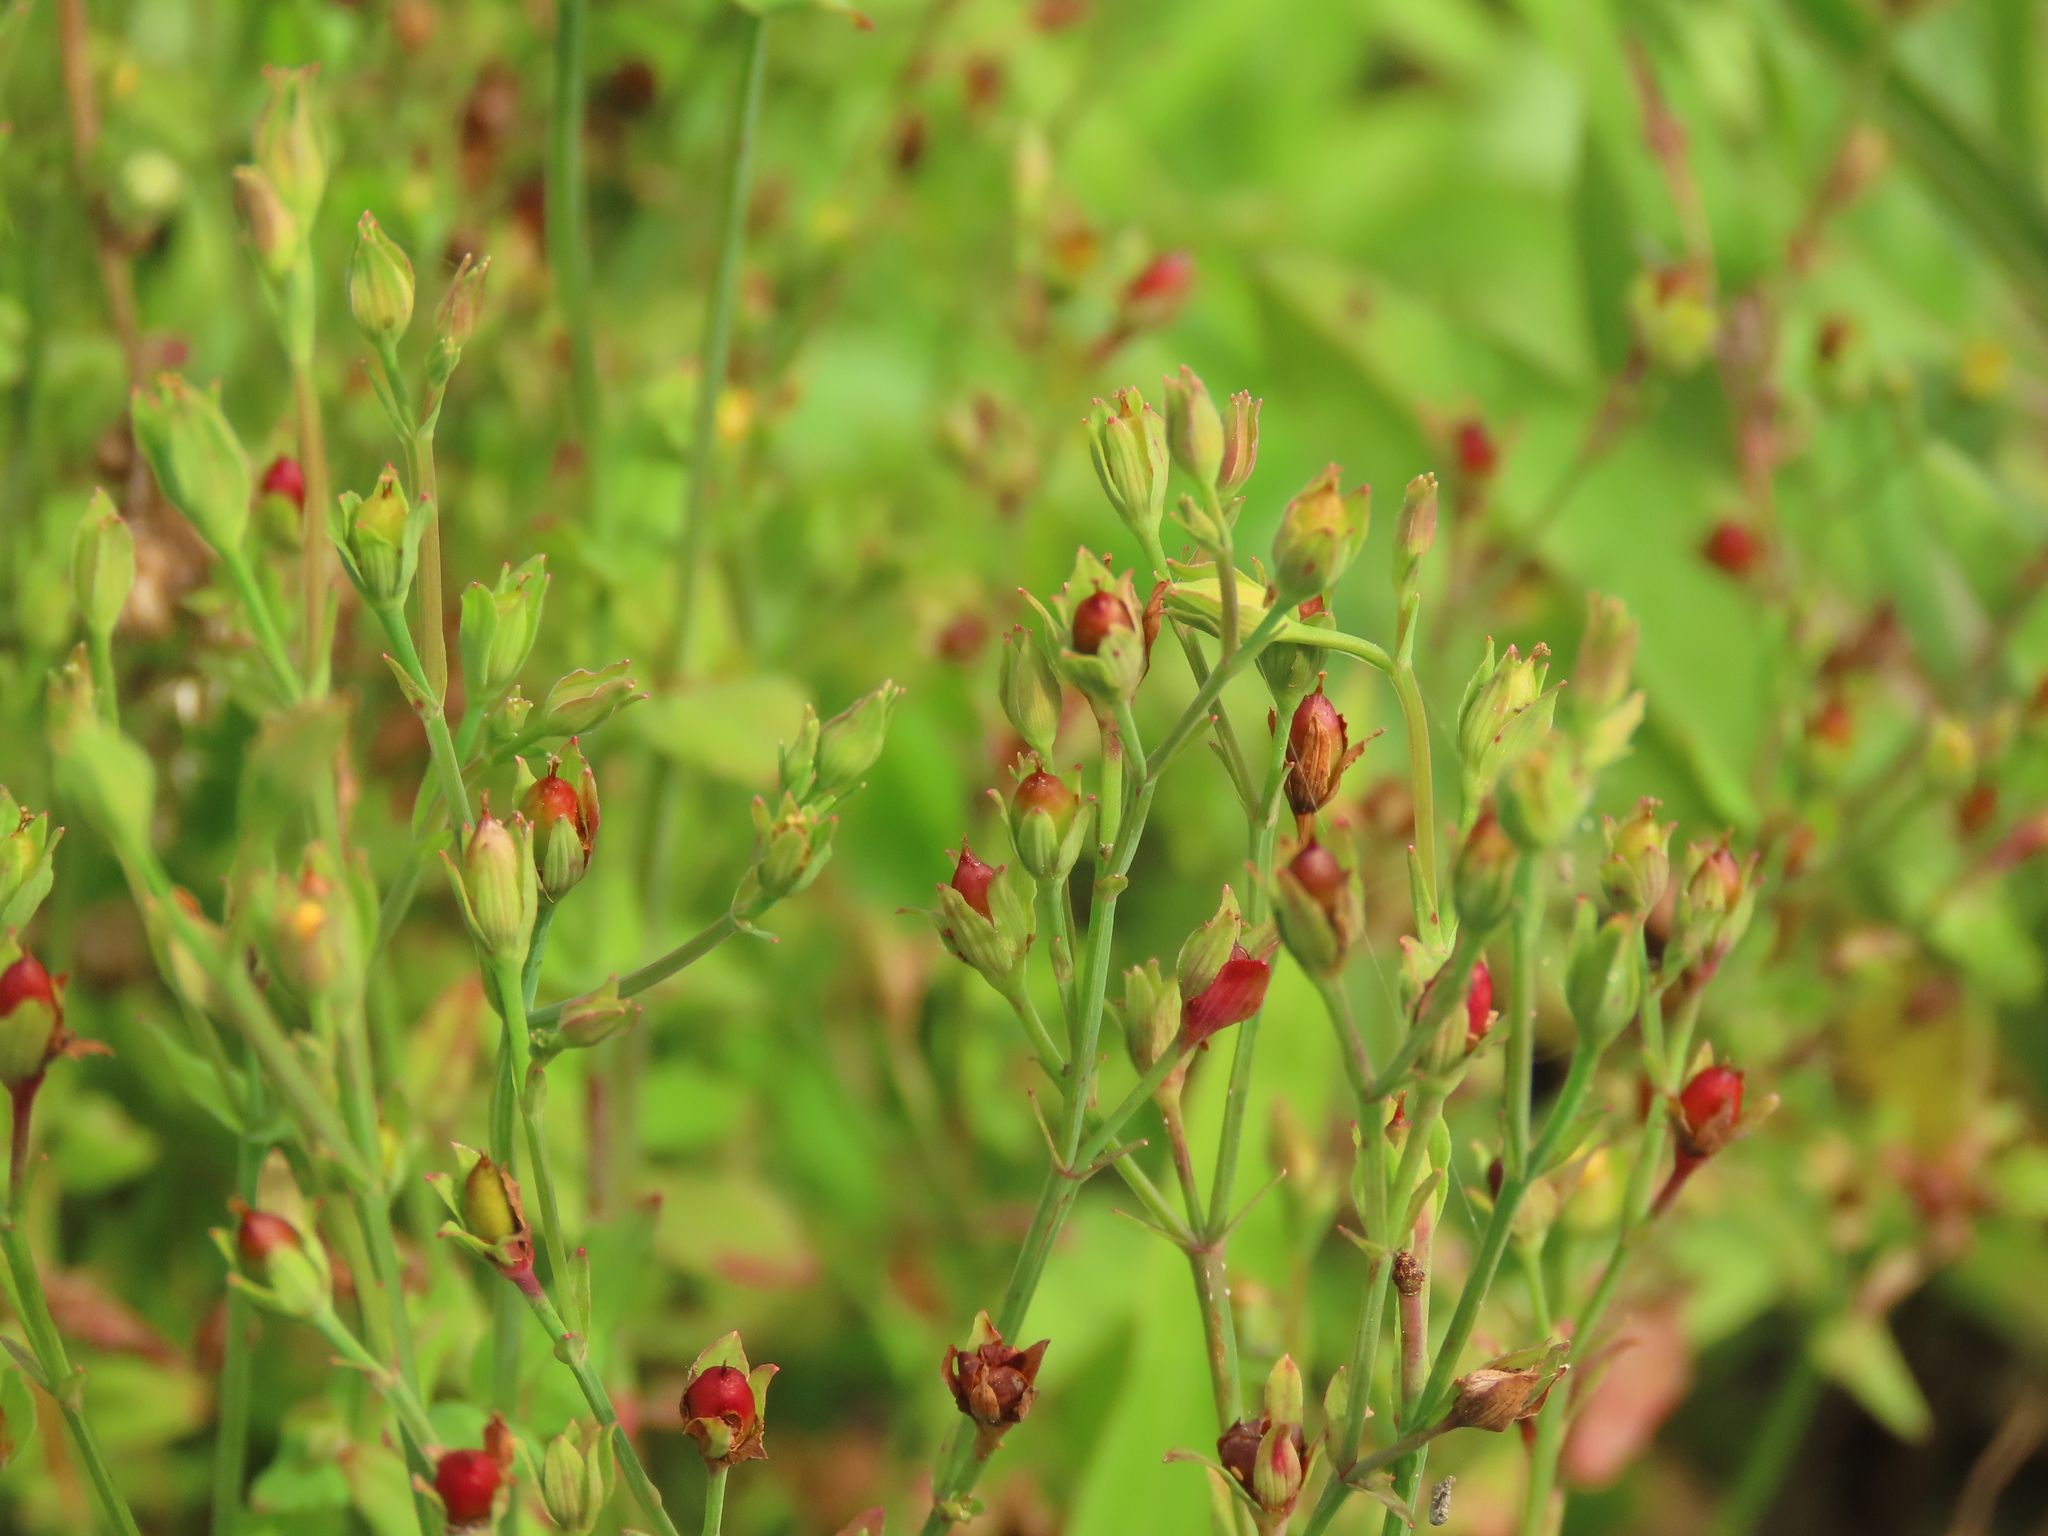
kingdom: Plantae
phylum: Tracheophyta
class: Magnoliopsida
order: Malpighiales
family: Hypericaceae
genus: Hypericum
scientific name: Hypericum japonicum
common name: Matted st. john's-wort
